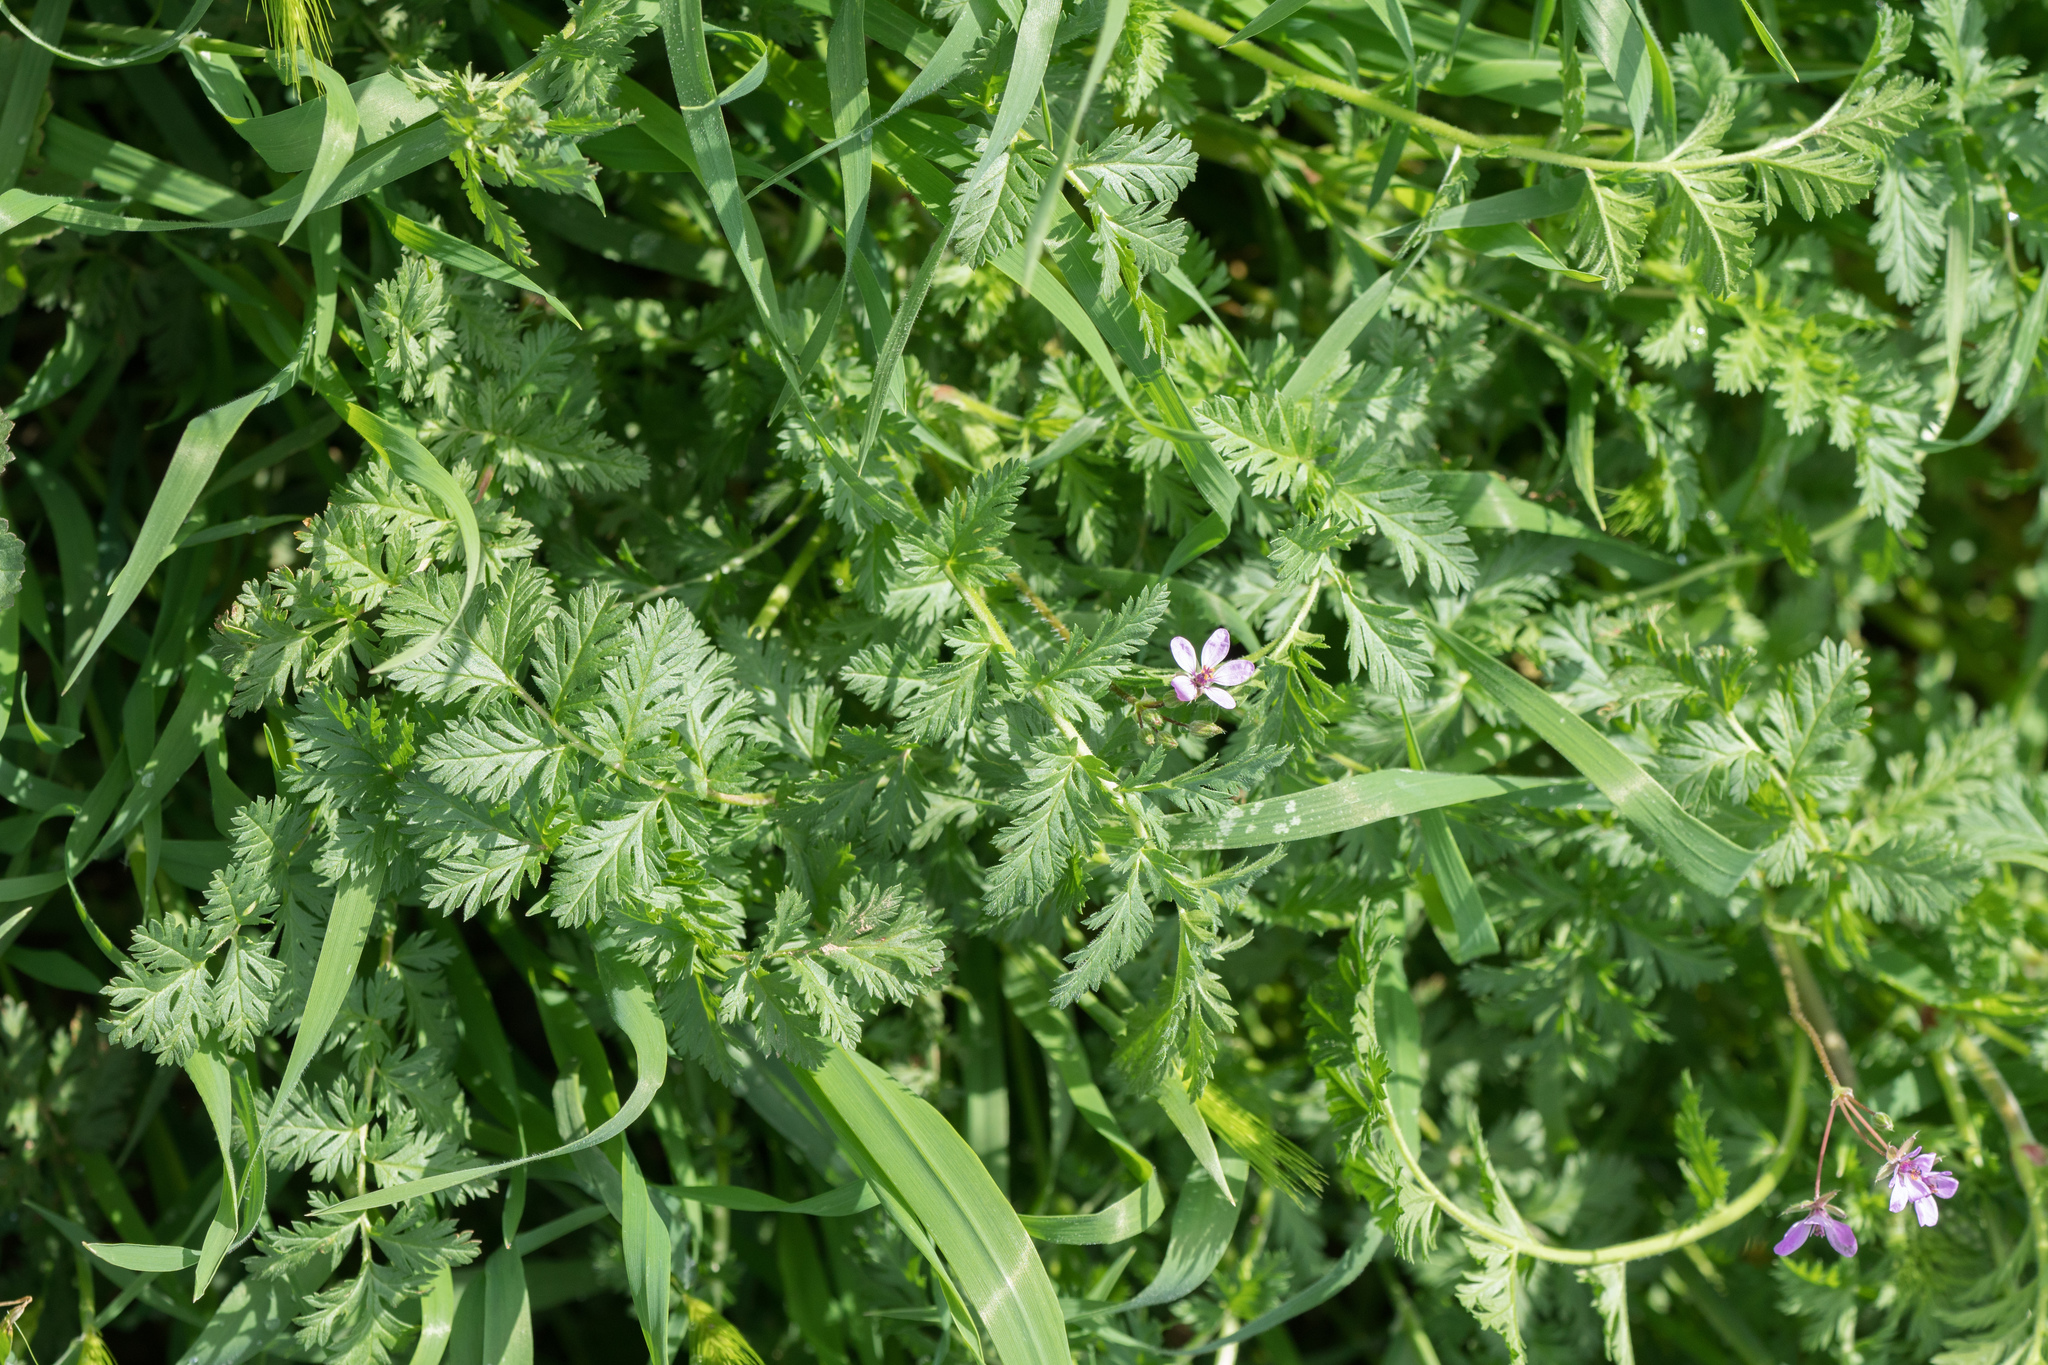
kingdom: Plantae
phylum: Tracheophyta
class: Magnoliopsida
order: Geraniales
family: Geraniaceae
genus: Erodium
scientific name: Erodium cicutarium
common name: Common stork's-bill
